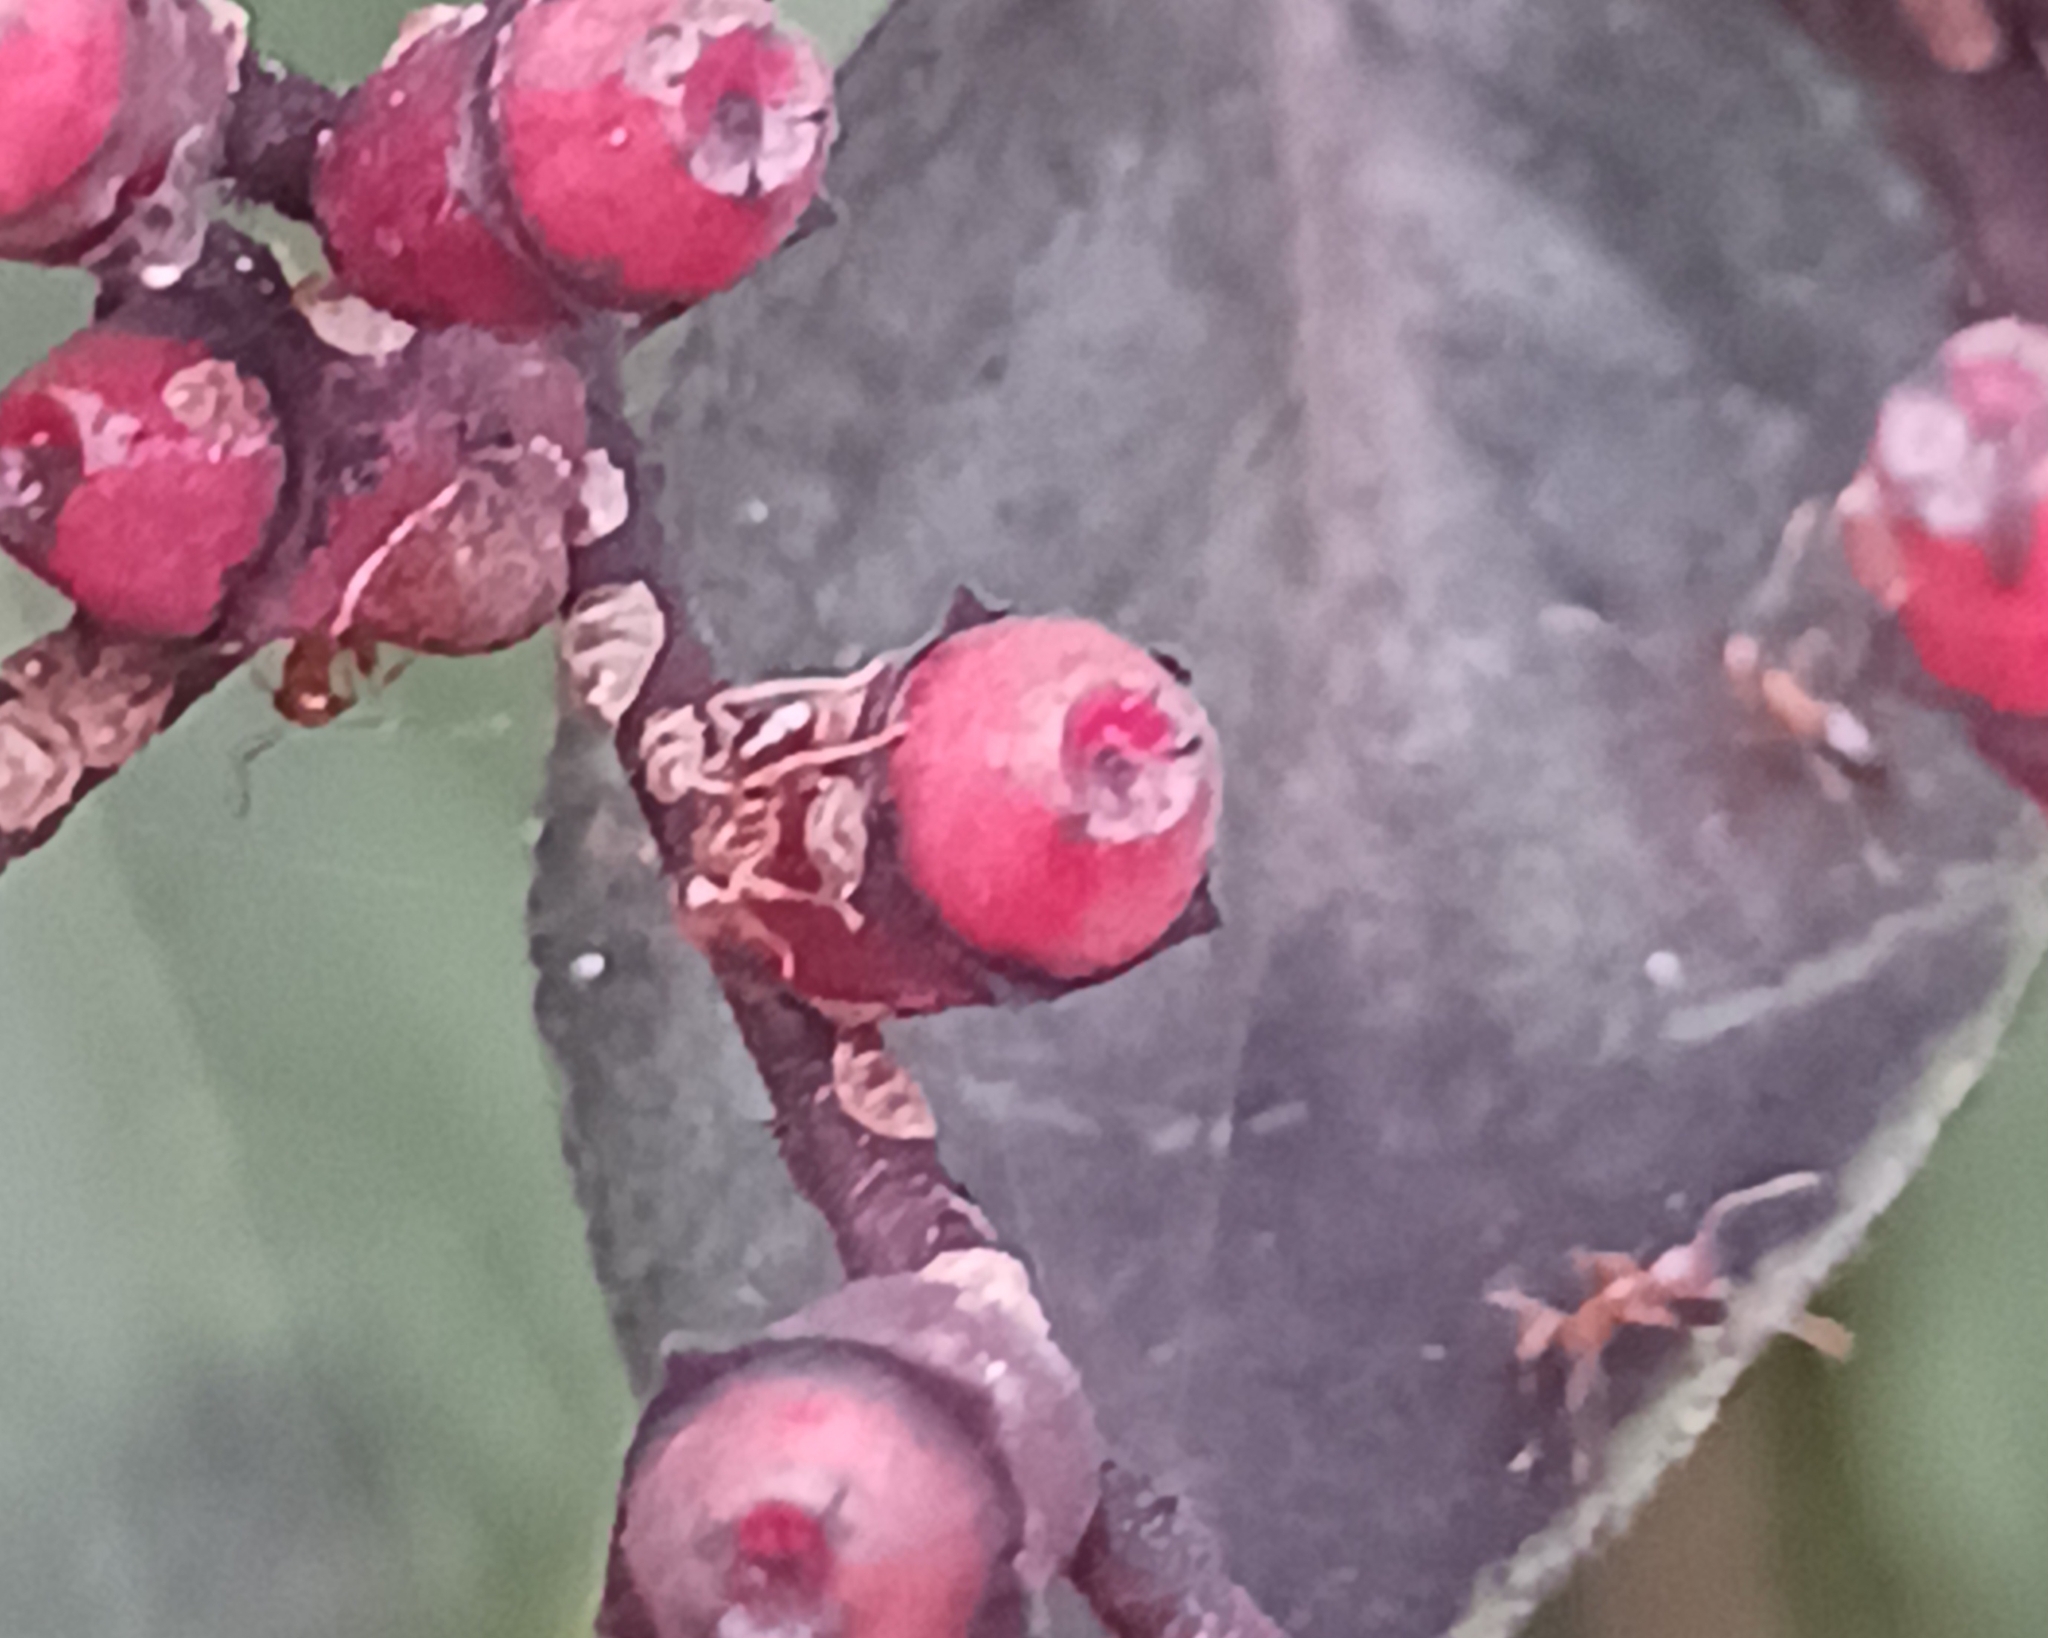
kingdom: Animalia
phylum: Arthropoda
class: Insecta
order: Hymenoptera
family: Formicidae
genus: Pheidole
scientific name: Pheidole megacephala
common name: Bigheaded ant
